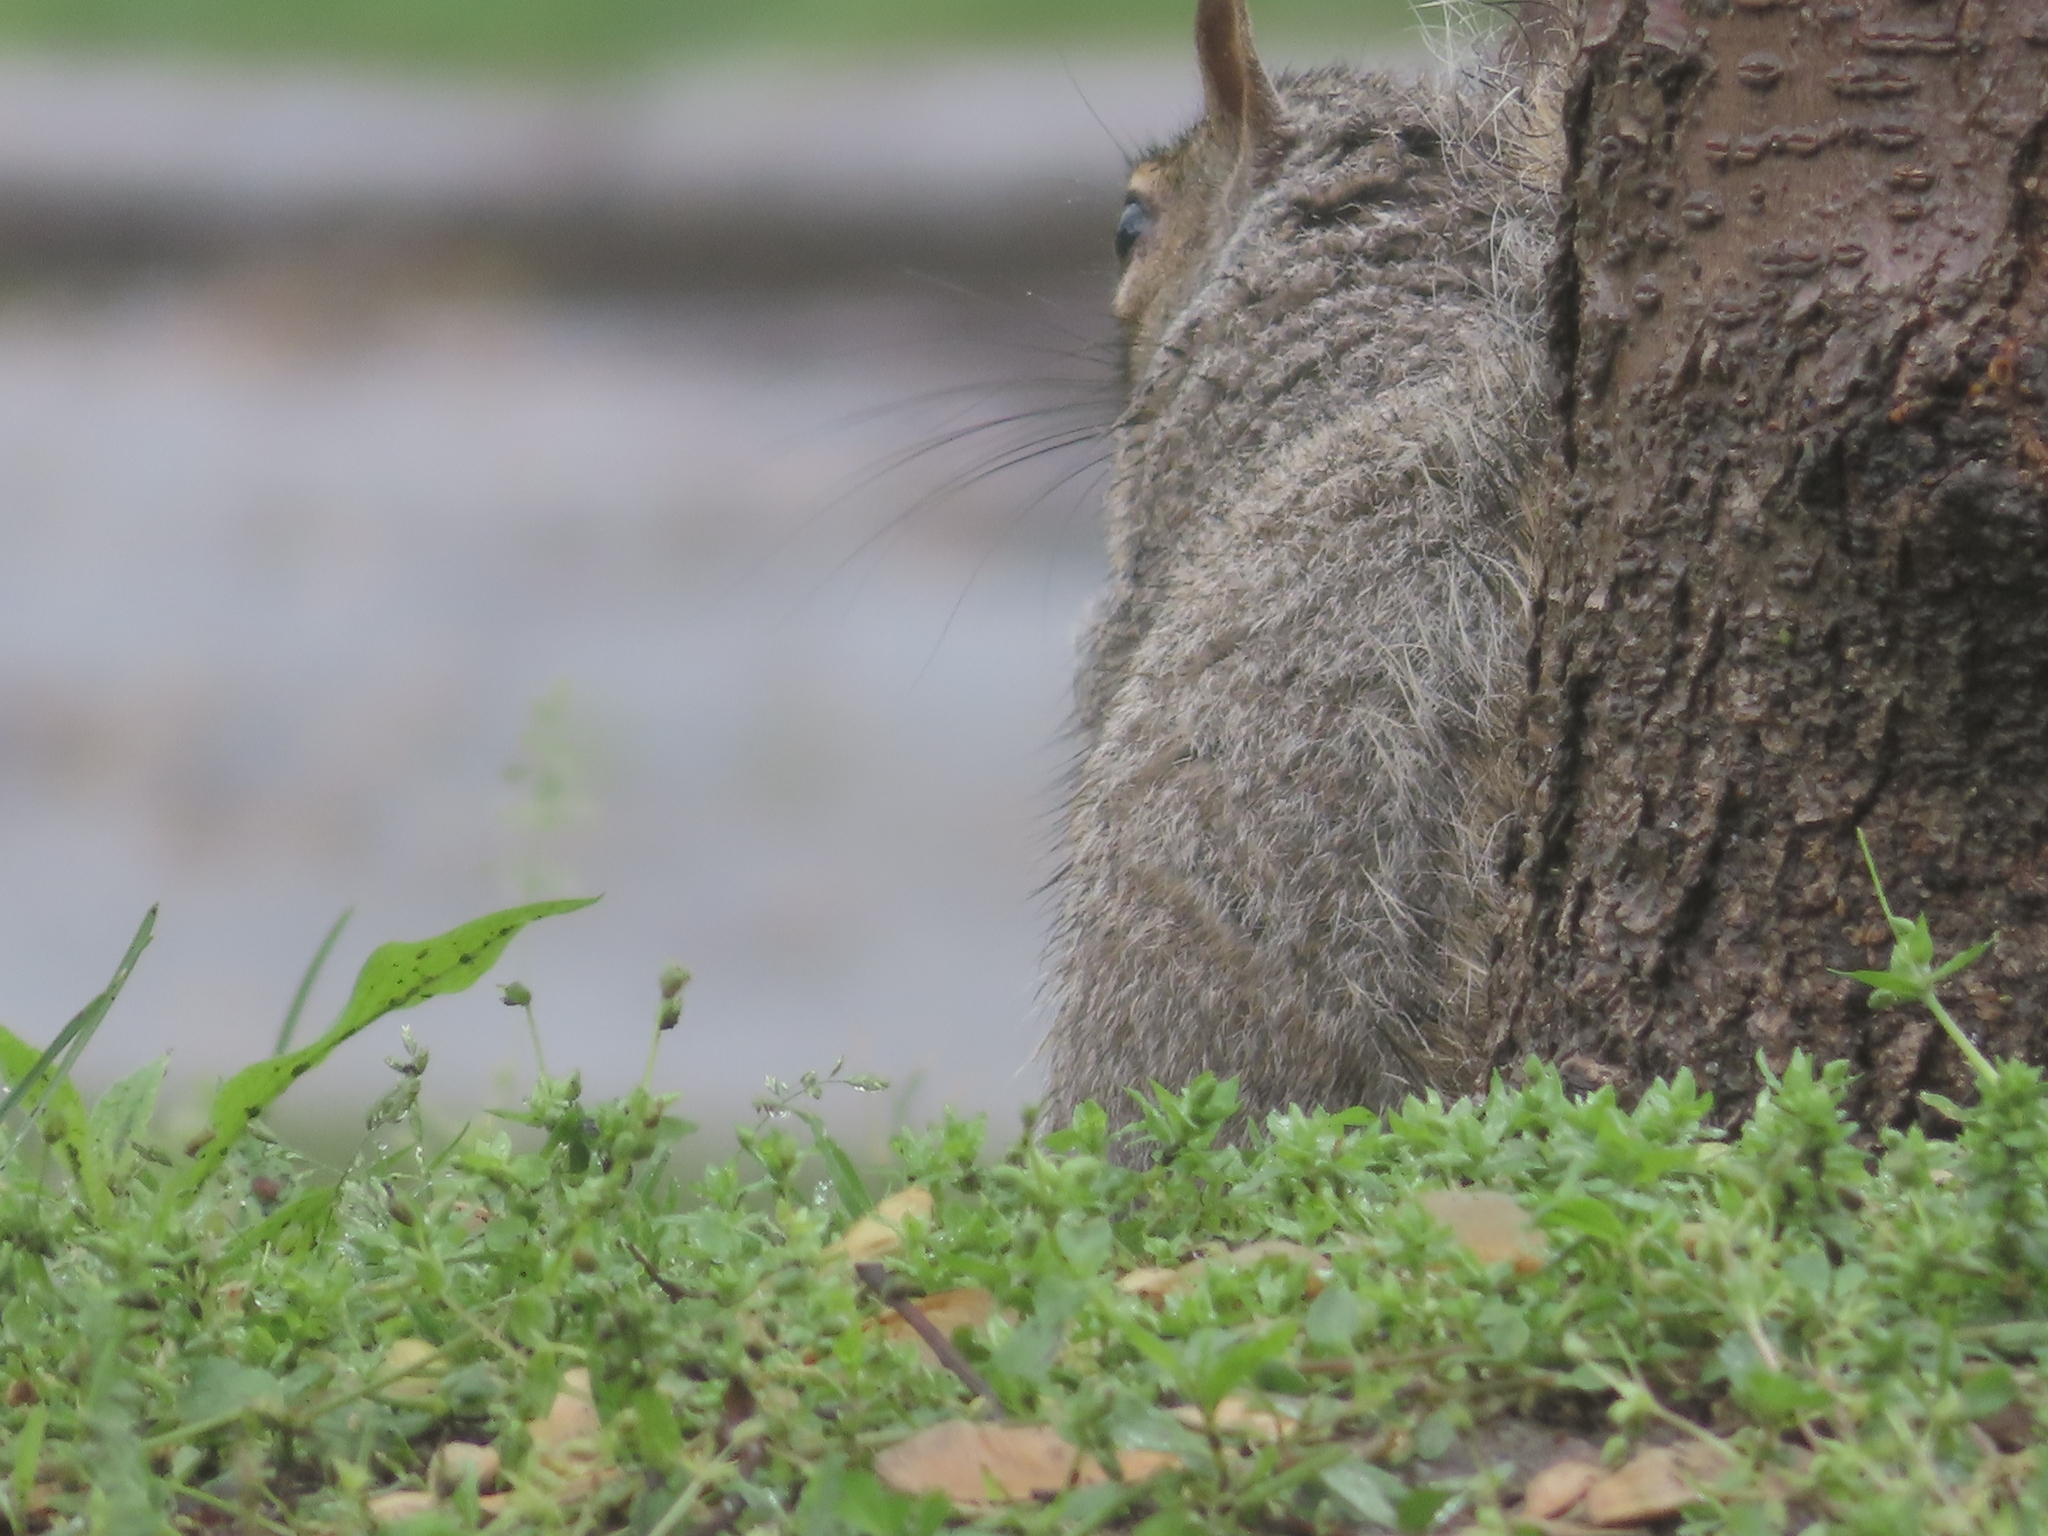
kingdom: Animalia
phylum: Chordata
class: Mammalia
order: Rodentia
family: Sciuridae
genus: Sciurus
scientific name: Sciurus carolinensis
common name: Eastern gray squirrel
